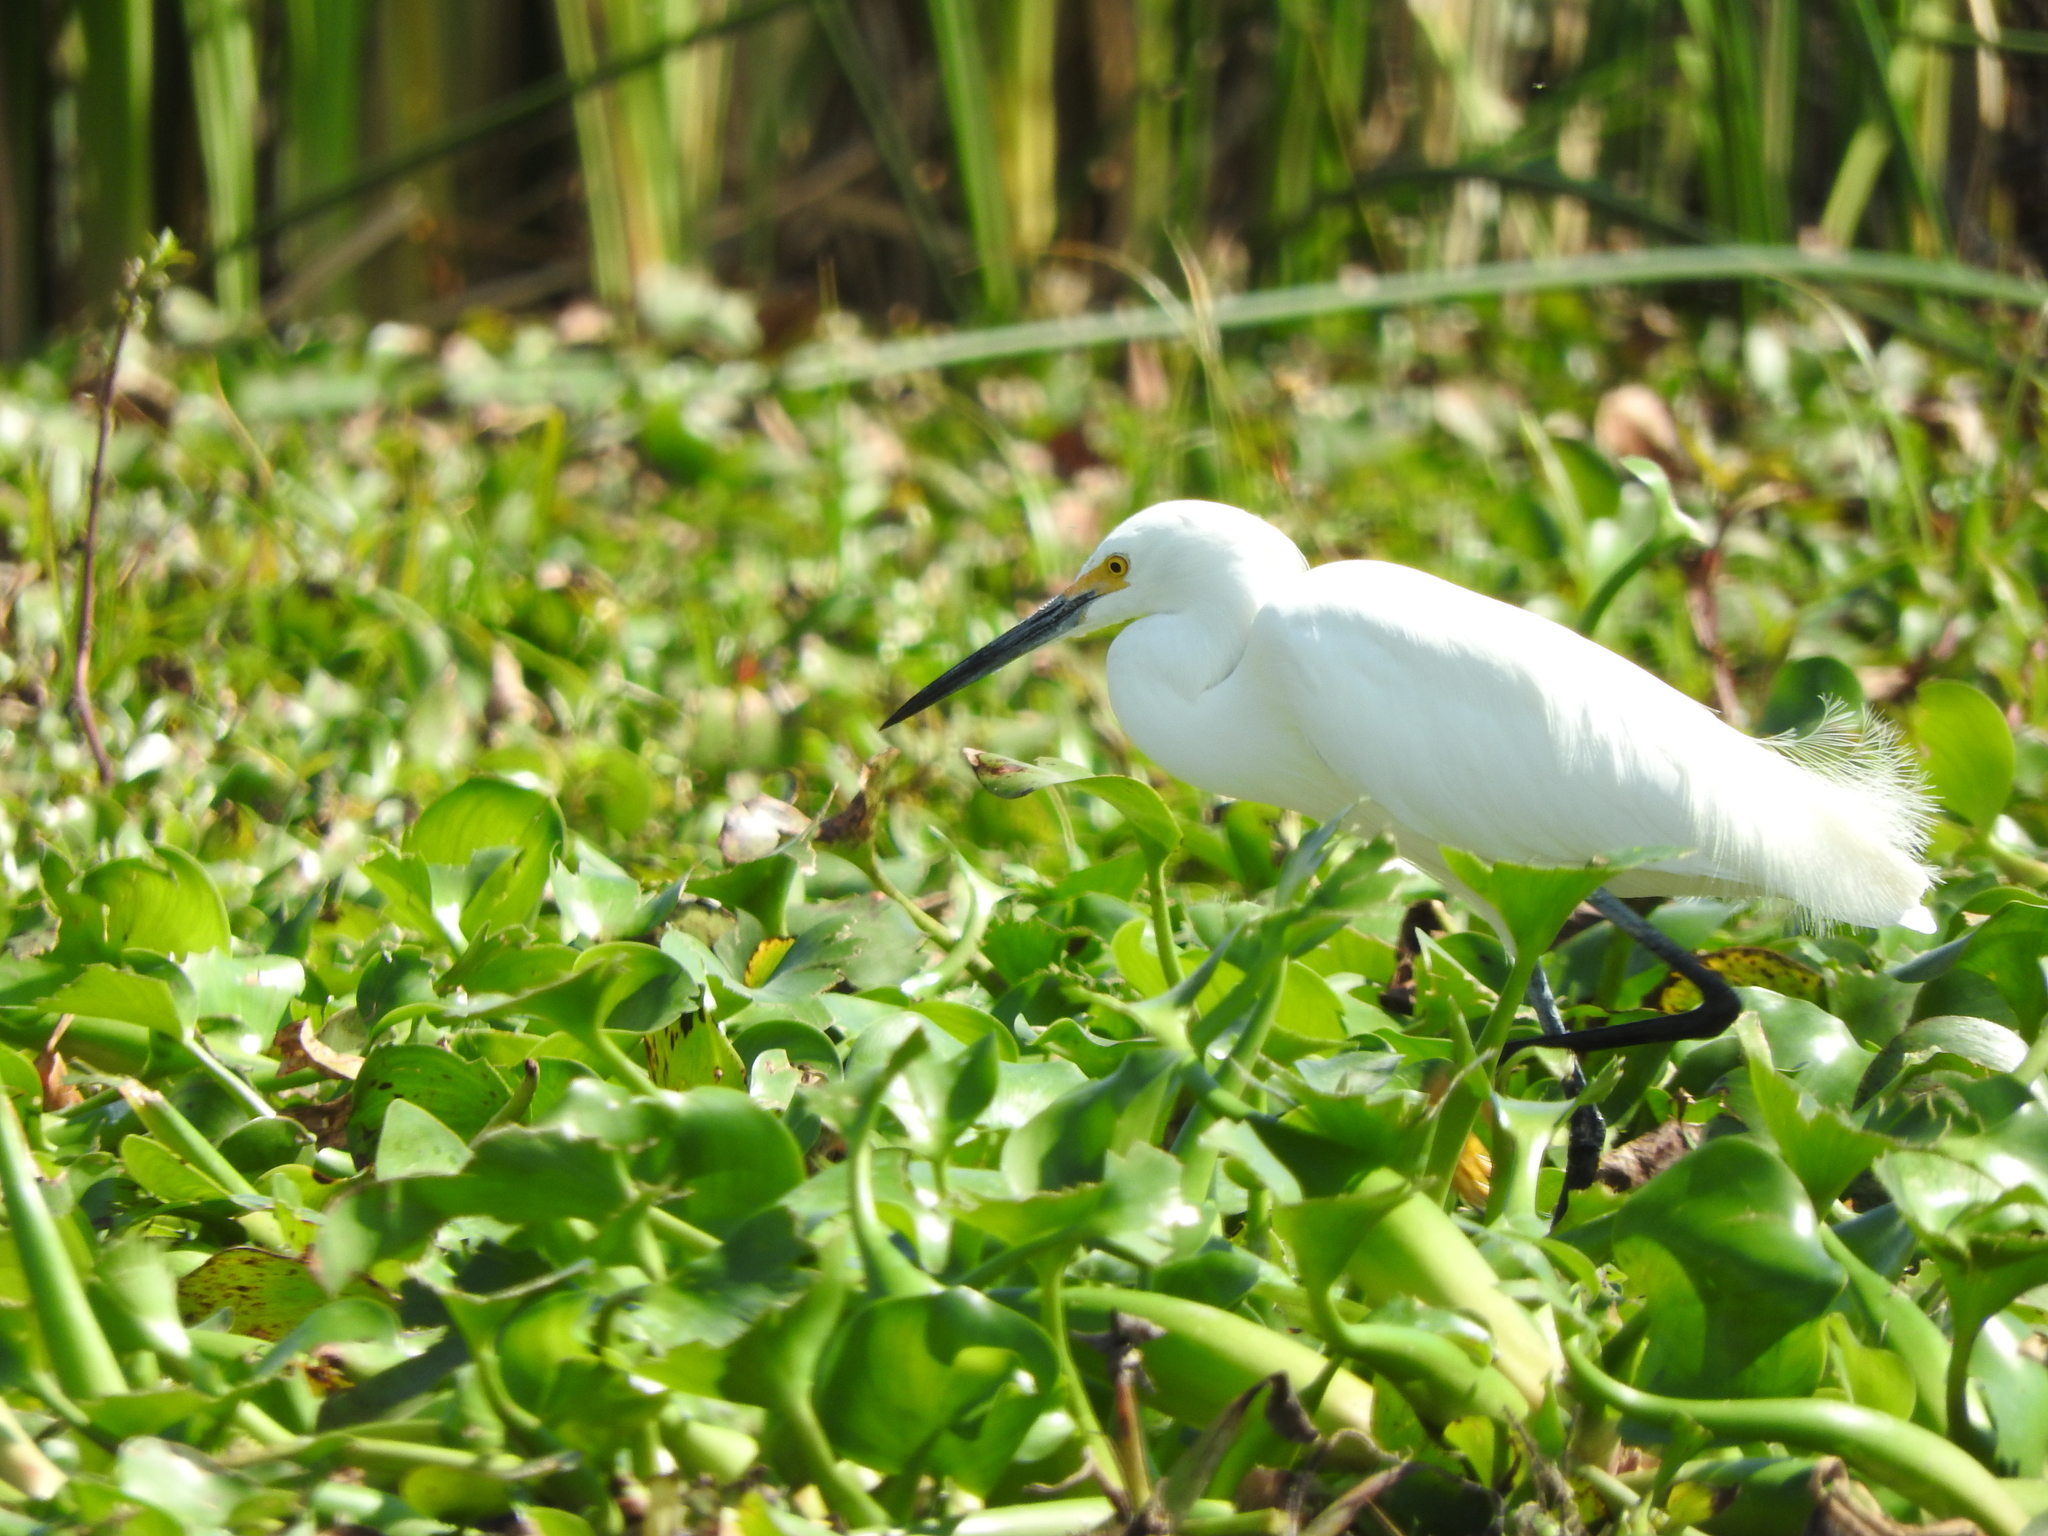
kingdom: Animalia
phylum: Chordata
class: Aves
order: Pelecaniformes
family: Ardeidae
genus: Egretta
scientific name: Egretta thula
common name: Snowy egret
